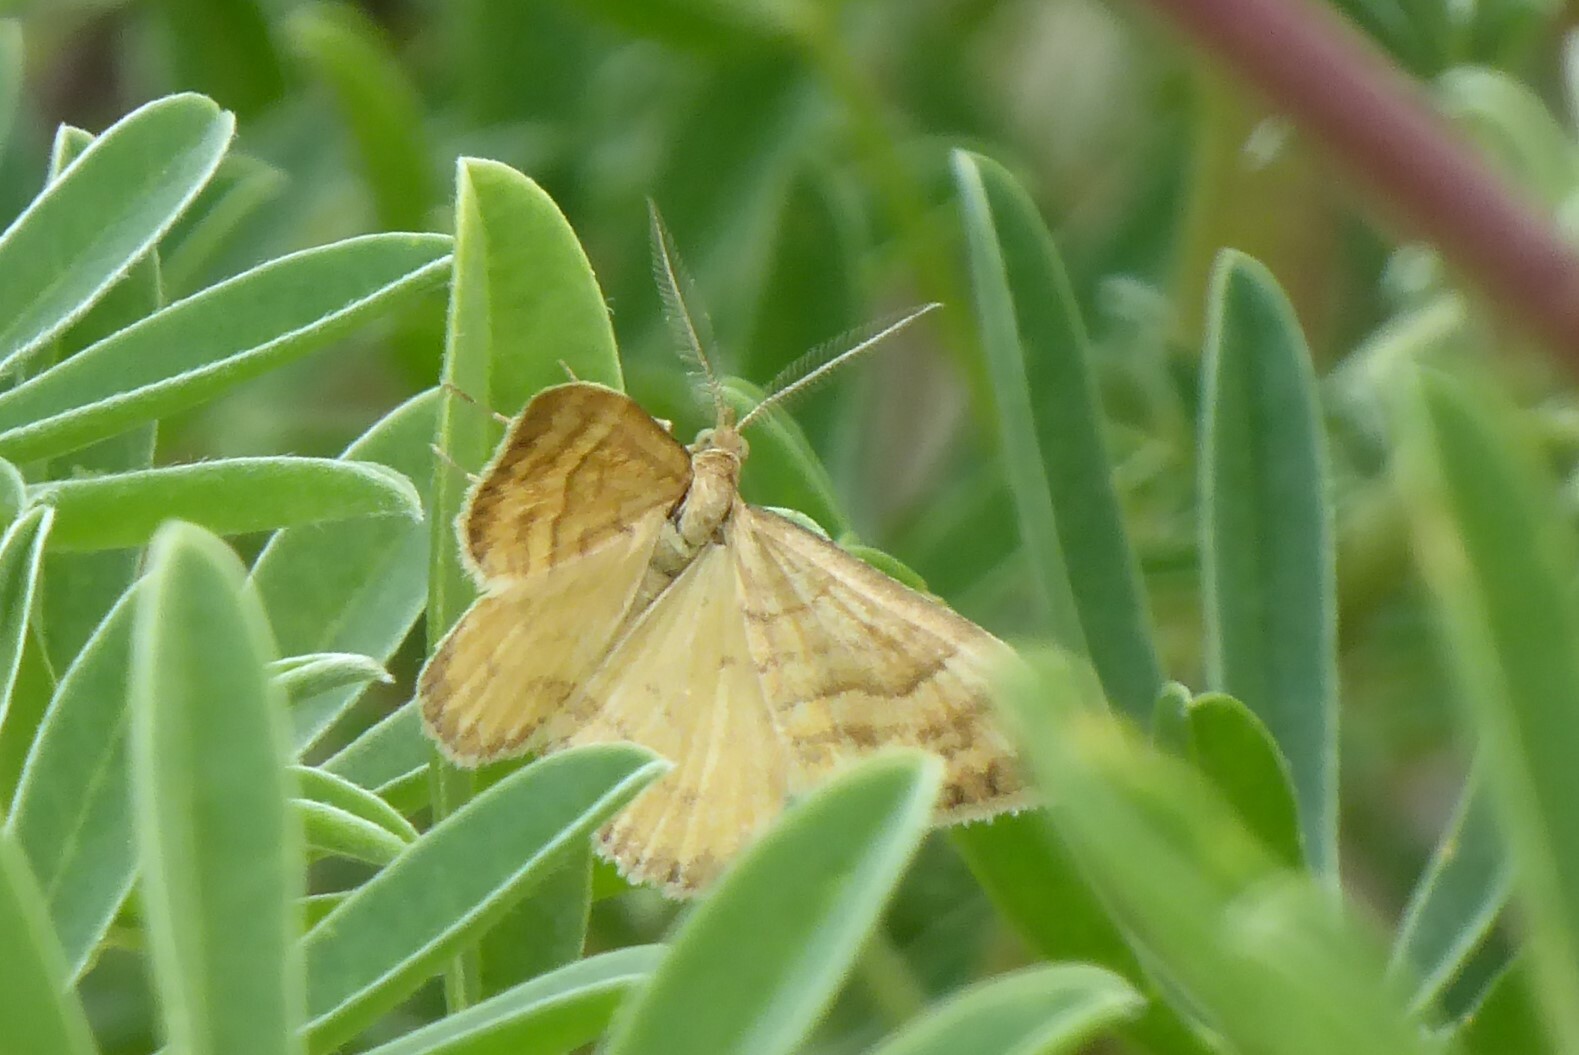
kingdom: Animalia
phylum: Arthropoda
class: Insecta
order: Lepidoptera
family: Geometridae
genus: Asaphodes
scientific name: Asaphodes abrogata
